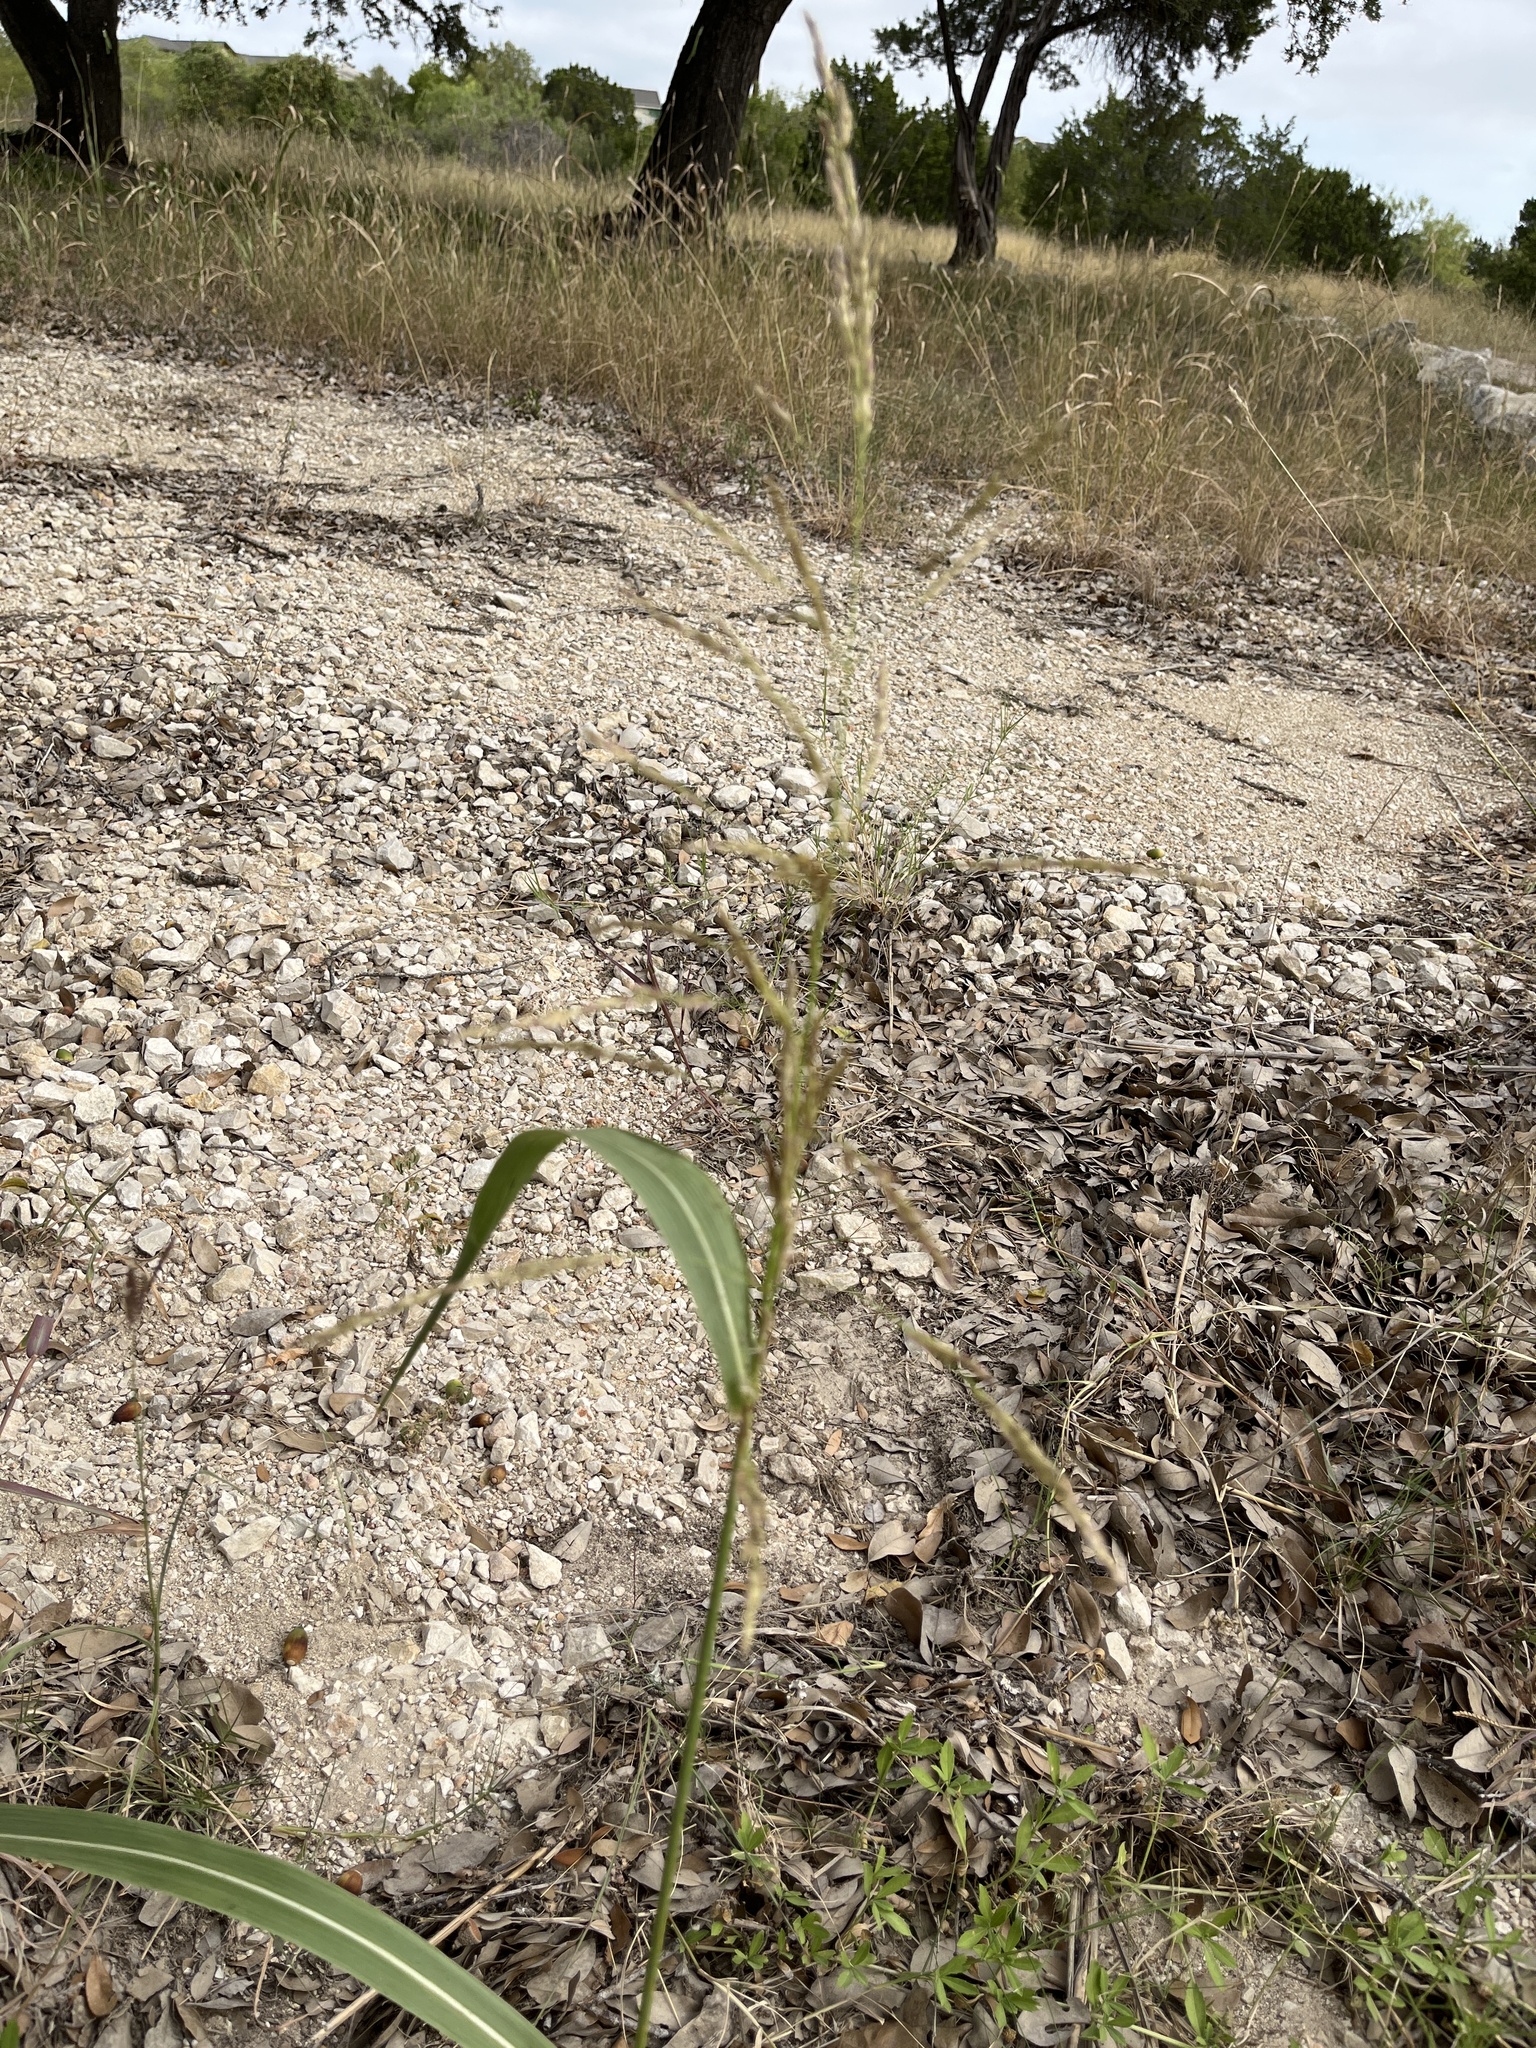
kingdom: Plantae
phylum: Tracheophyta
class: Liliopsida
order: Poales
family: Poaceae
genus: Sorghum
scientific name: Sorghum halepense
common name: Johnson-grass
